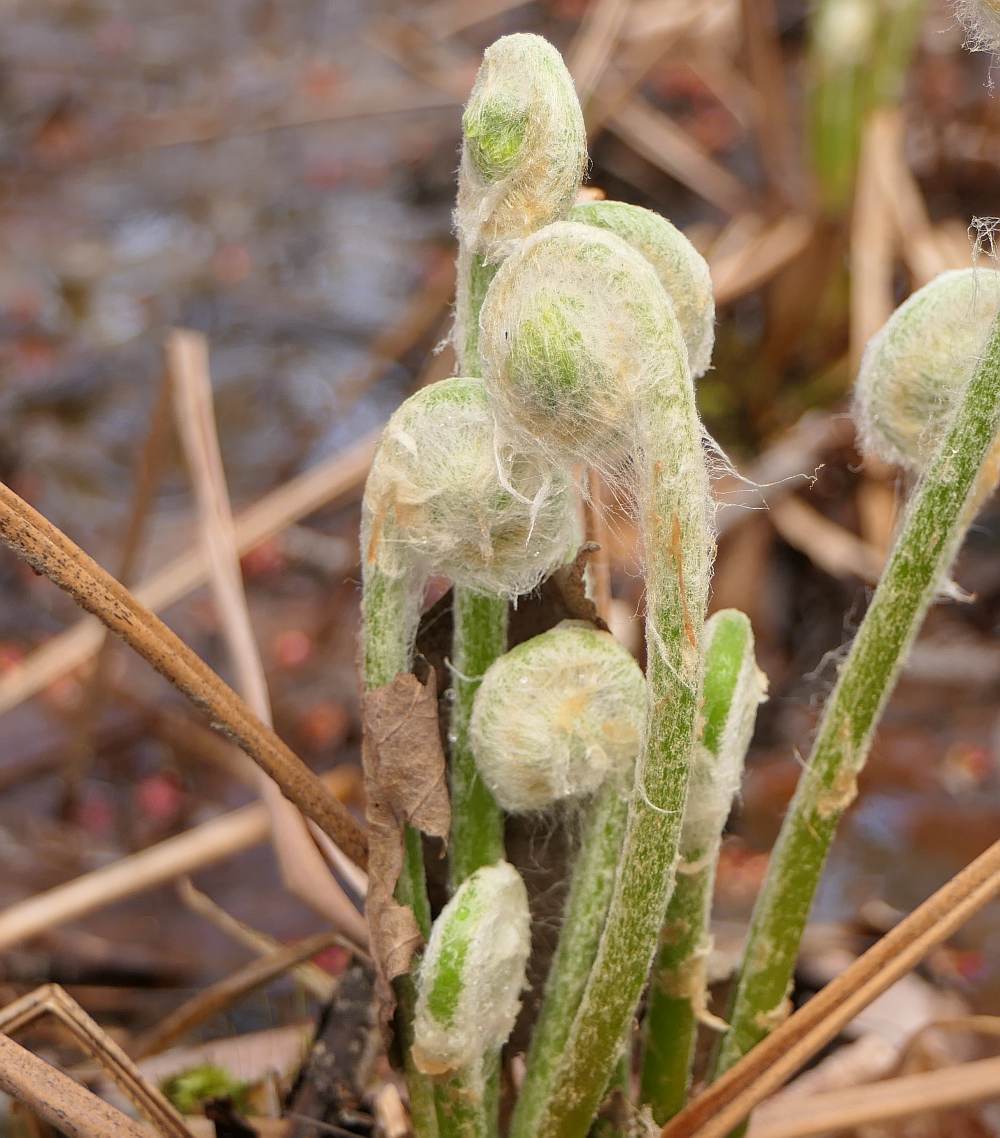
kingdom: Plantae
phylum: Tracheophyta
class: Polypodiopsida
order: Osmundales
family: Osmundaceae
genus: Osmundastrum
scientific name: Osmundastrum cinnamomeum
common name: Cinnamon fern
